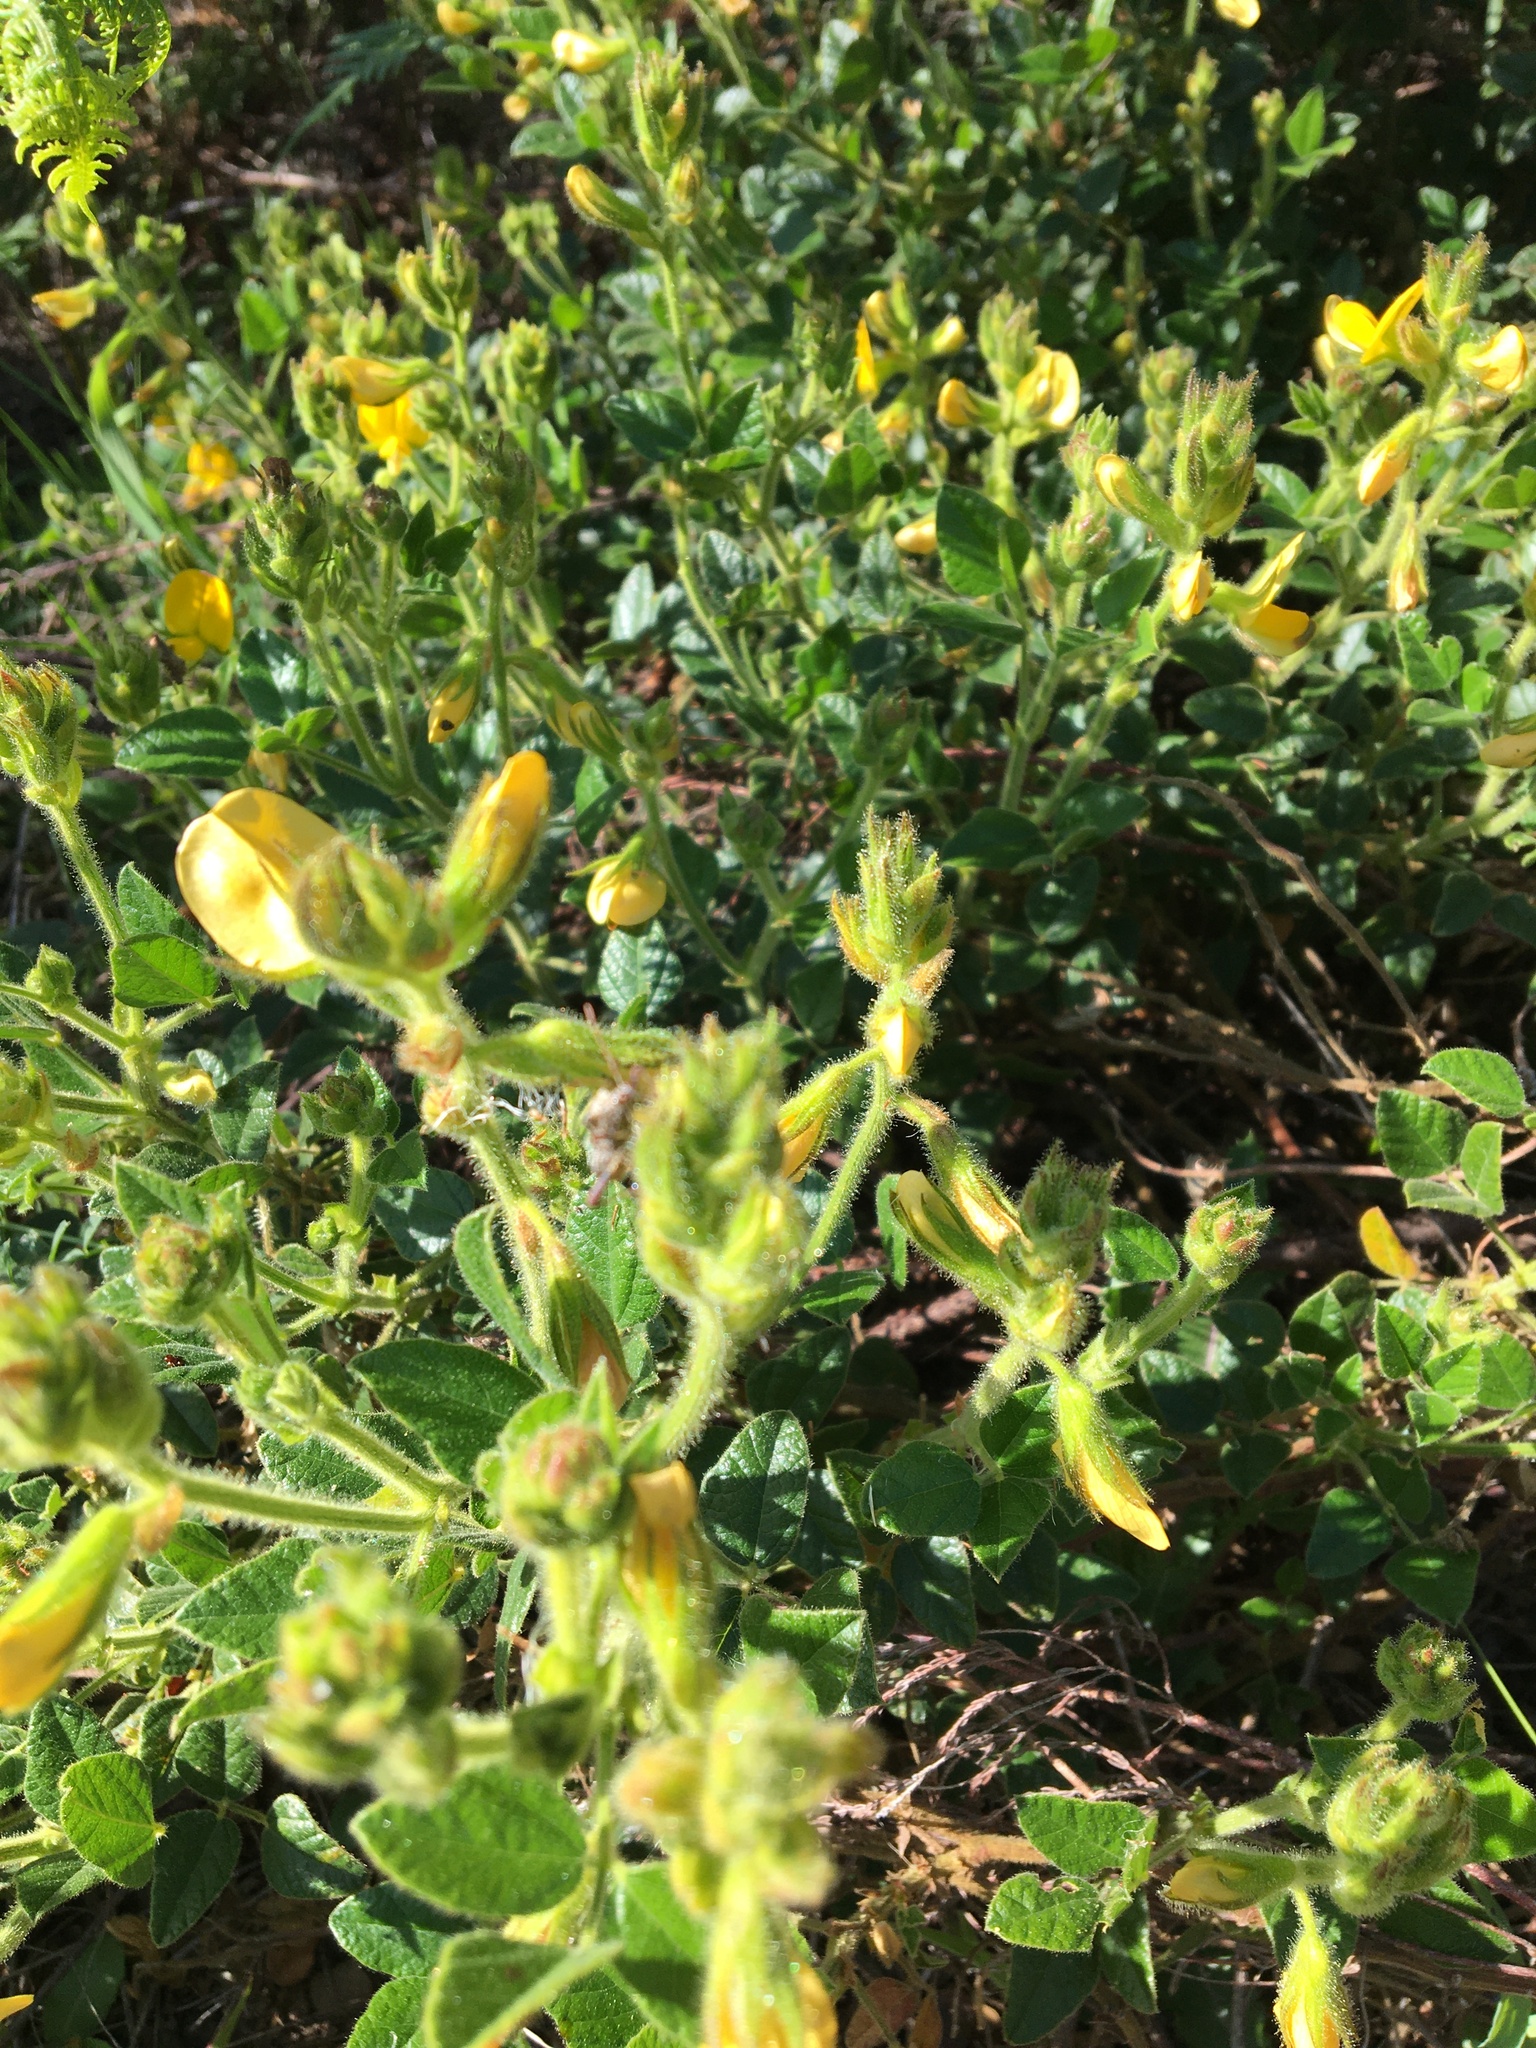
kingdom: Plantae
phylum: Tracheophyta
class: Magnoliopsida
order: Fabales
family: Fabaceae
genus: Bolusafra
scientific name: Bolusafra bituminosa
